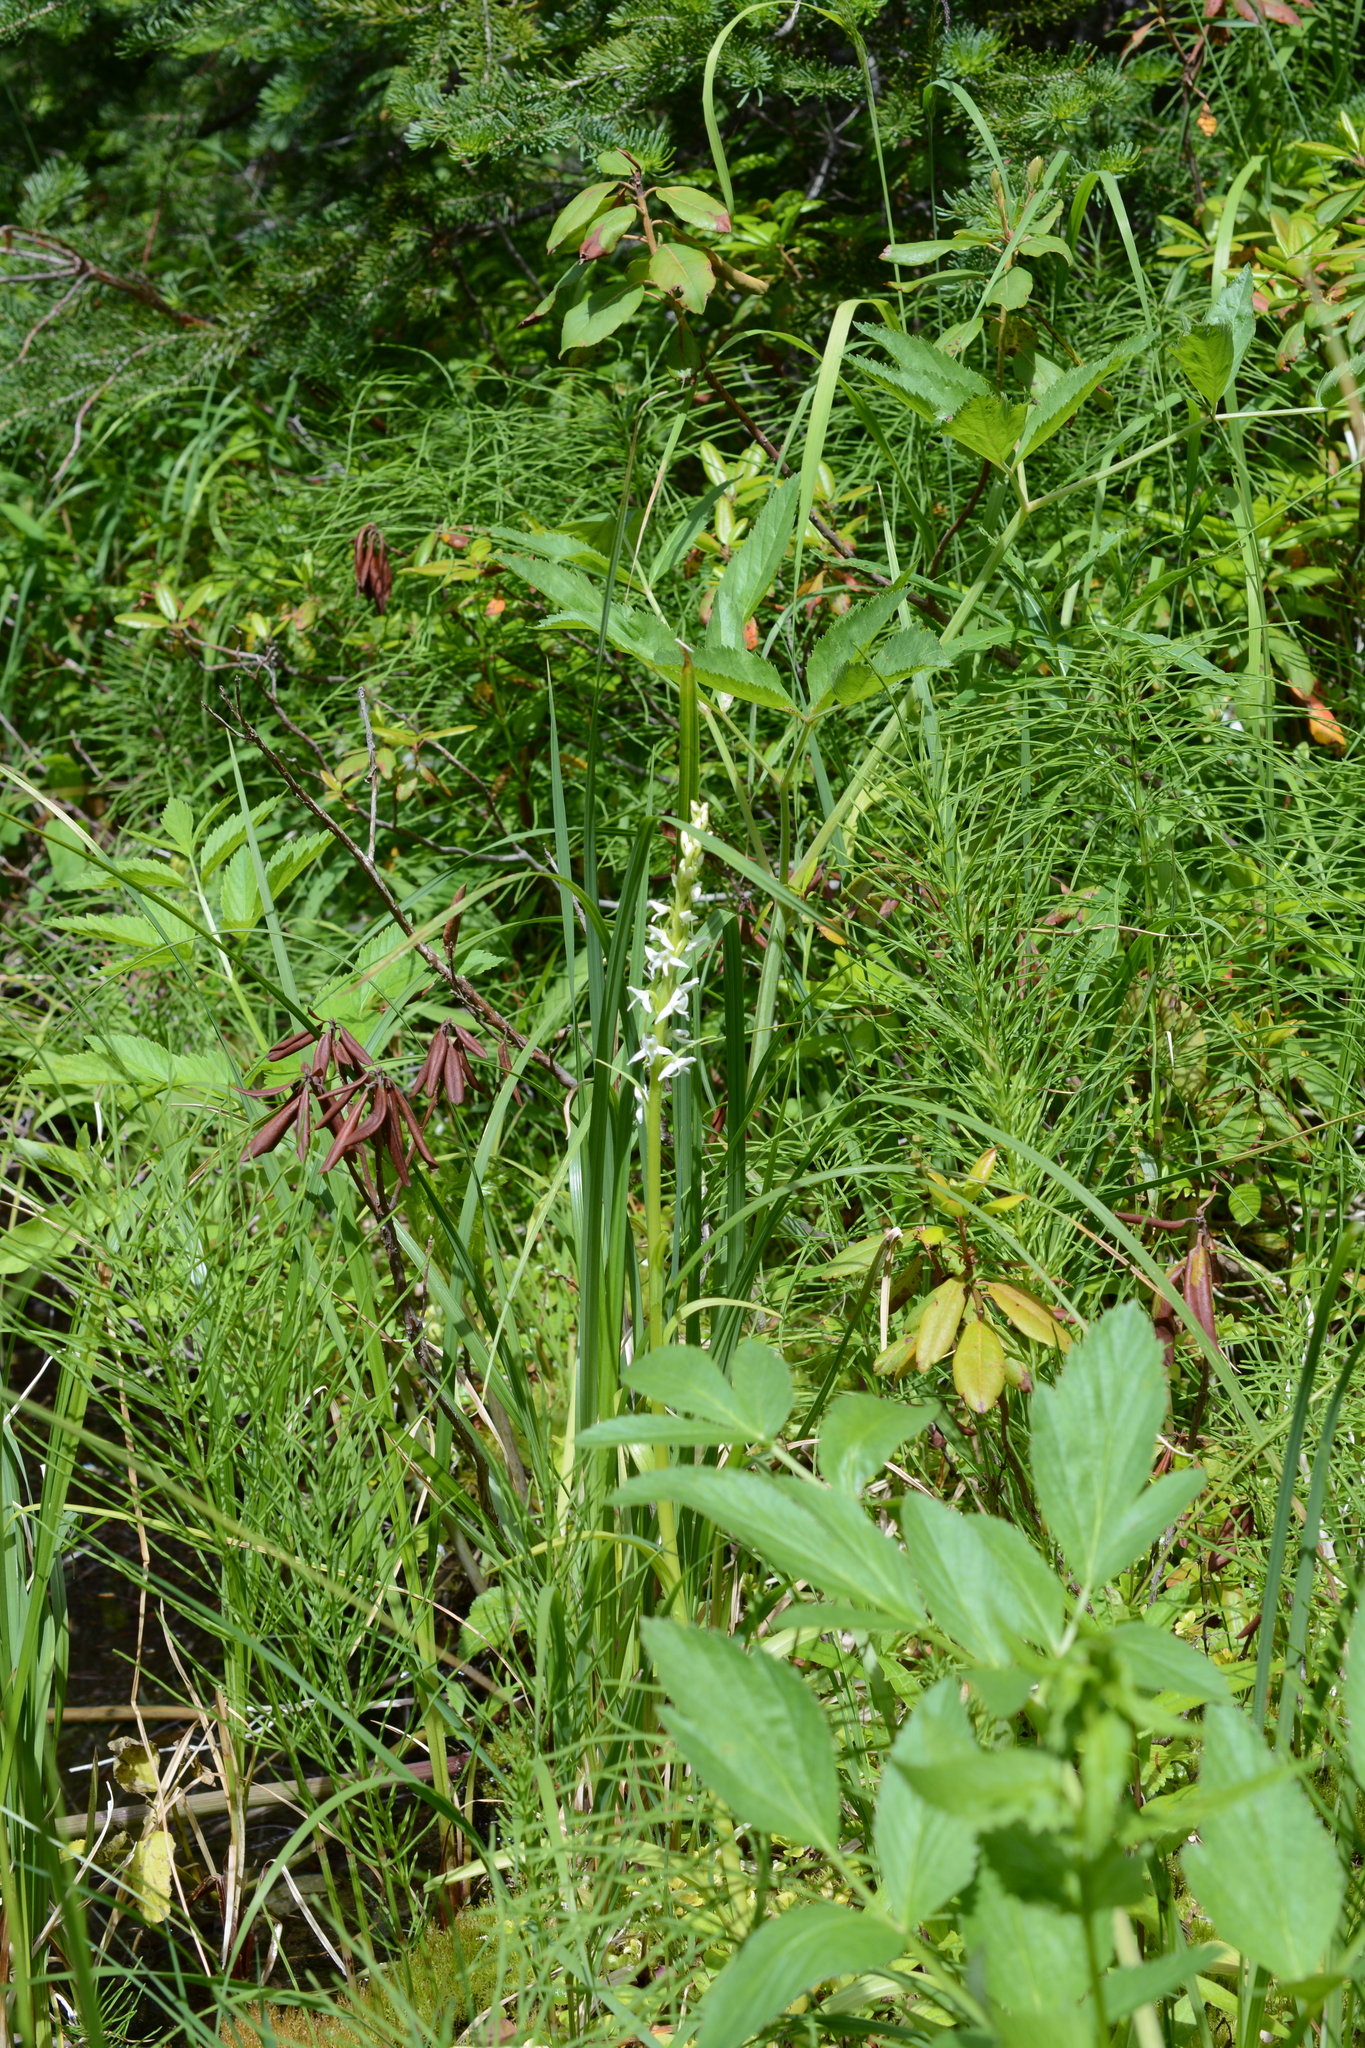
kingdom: Plantae
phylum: Tracheophyta
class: Liliopsida
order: Asparagales
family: Orchidaceae
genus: Platanthera
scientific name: Platanthera dilatata
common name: Bog candles
